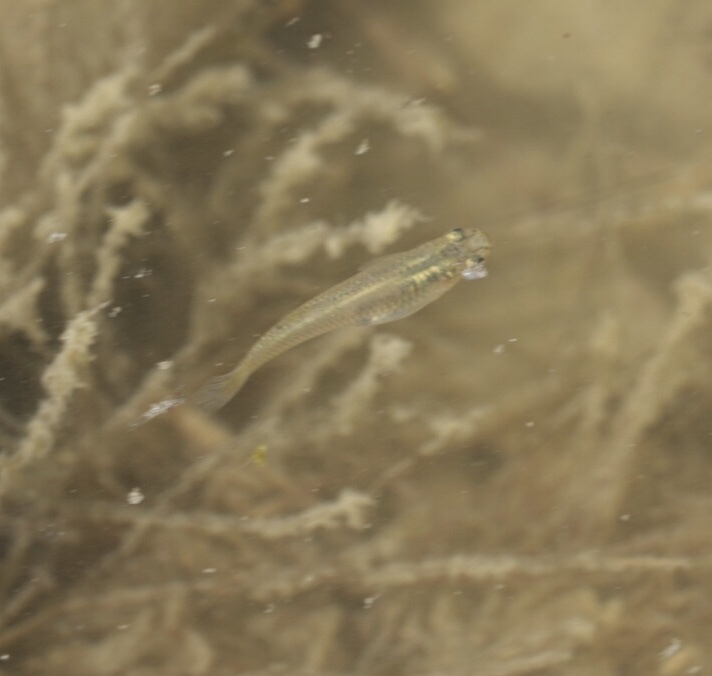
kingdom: Animalia
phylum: Chordata
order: Cyprinodontiformes
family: Poeciliidae
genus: Gambusia
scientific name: Gambusia affinis
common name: Mosquitofish
